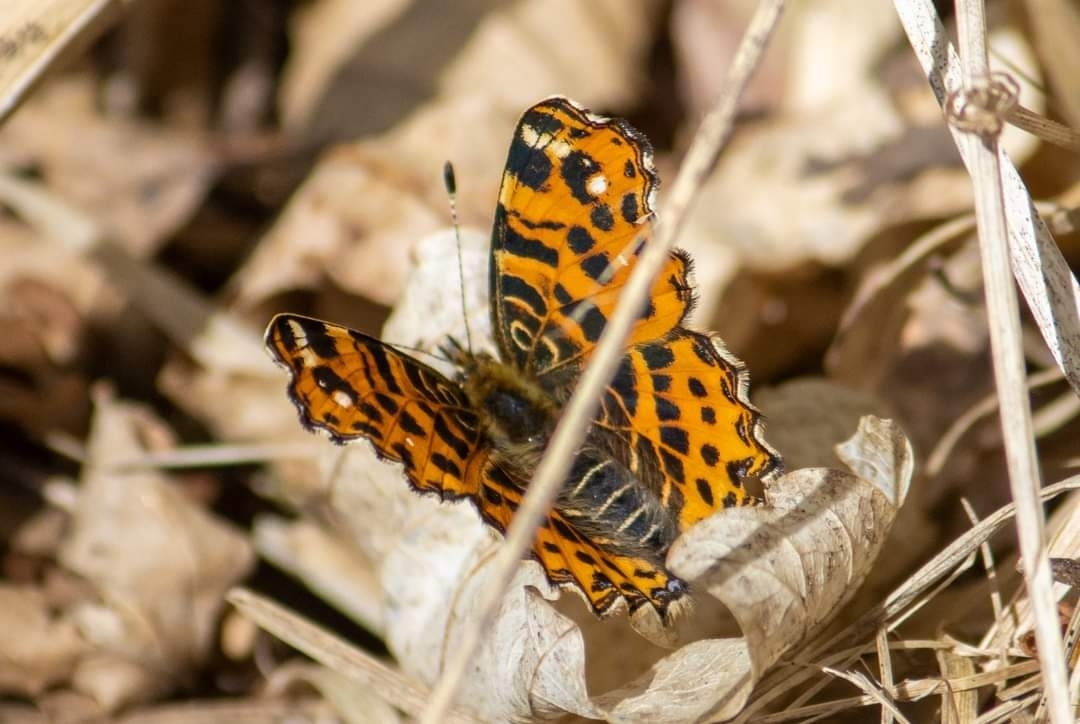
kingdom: Animalia
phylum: Arthropoda
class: Insecta
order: Lepidoptera
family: Nymphalidae
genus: Araschnia
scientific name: Araschnia levana
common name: Map butterfly
